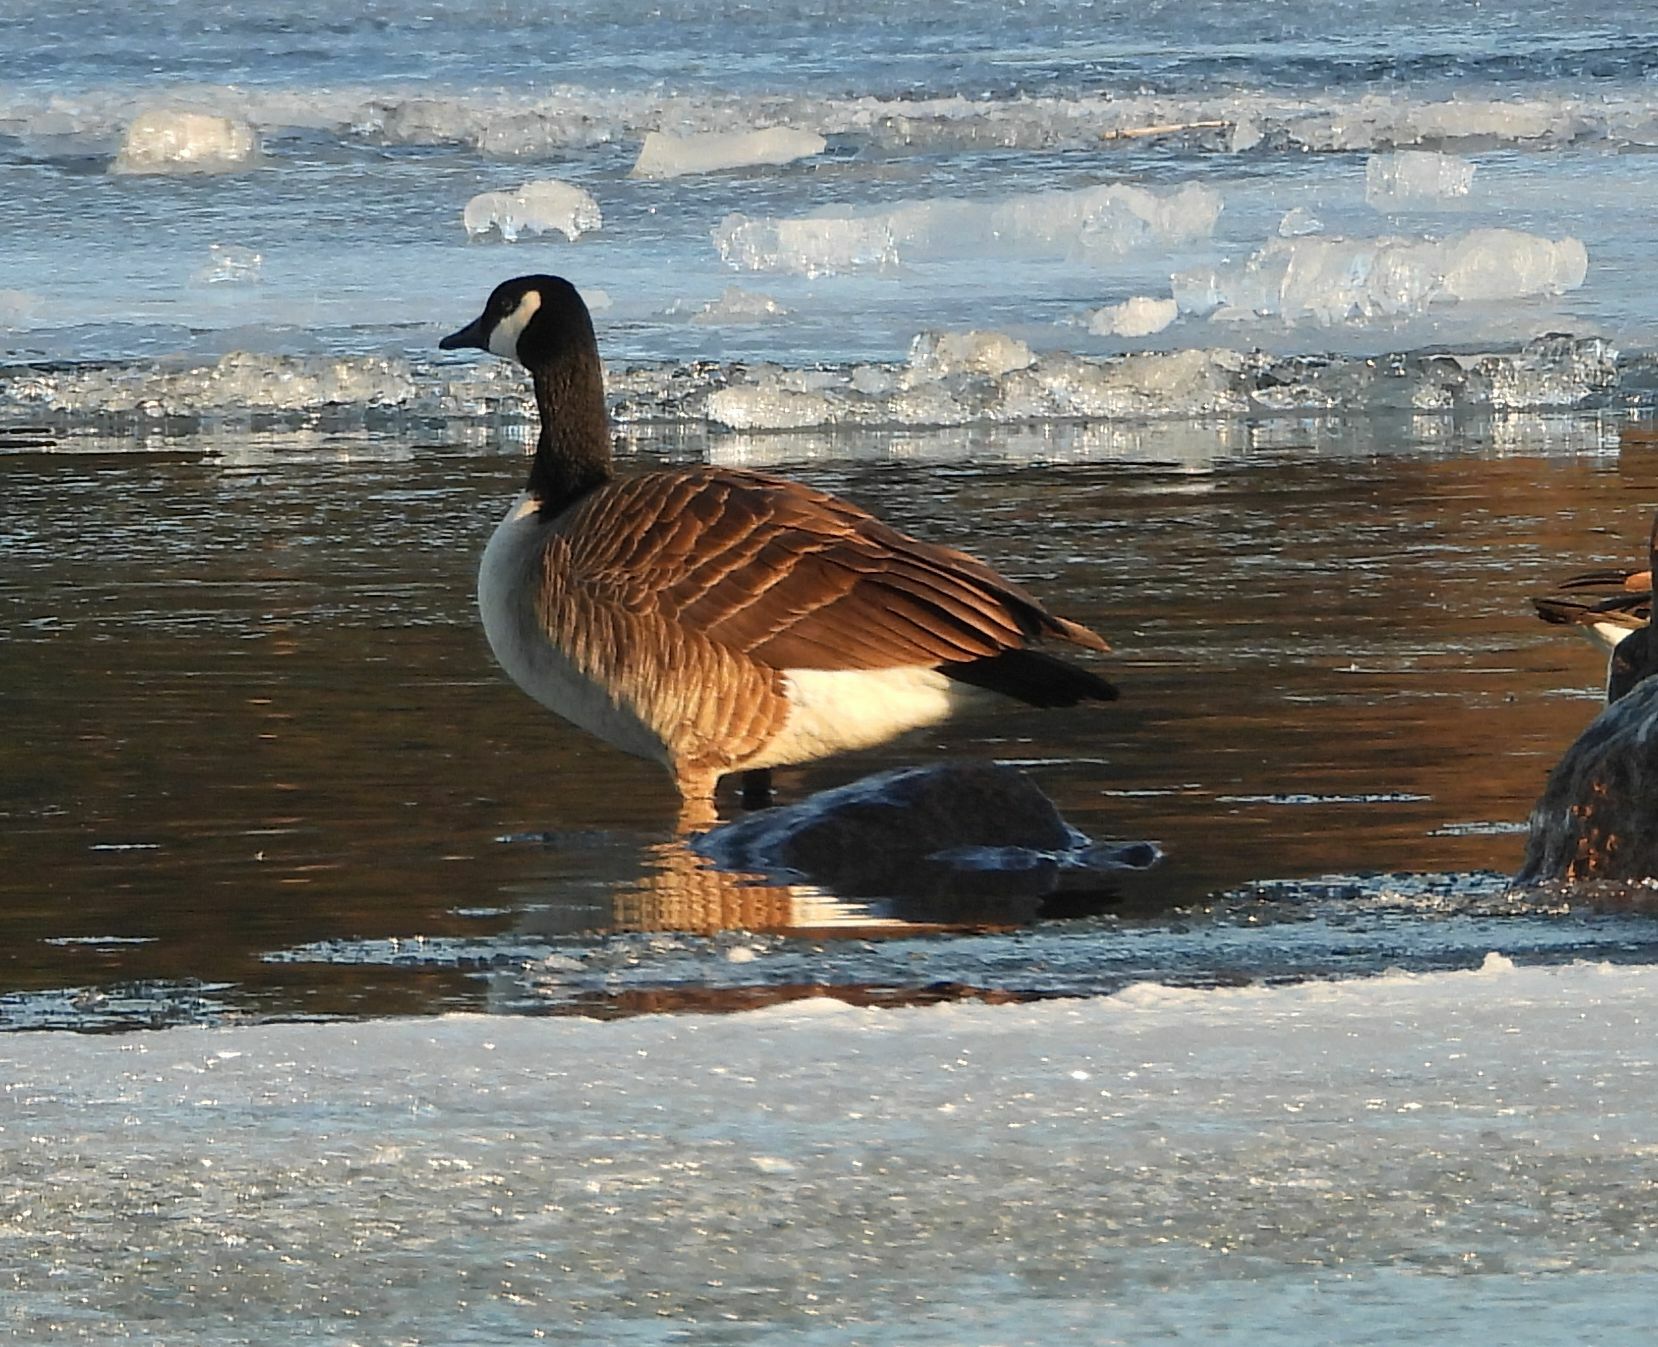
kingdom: Animalia
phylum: Chordata
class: Aves
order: Anseriformes
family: Anatidae
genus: Branta
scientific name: Branta canadensis
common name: Canada goose
